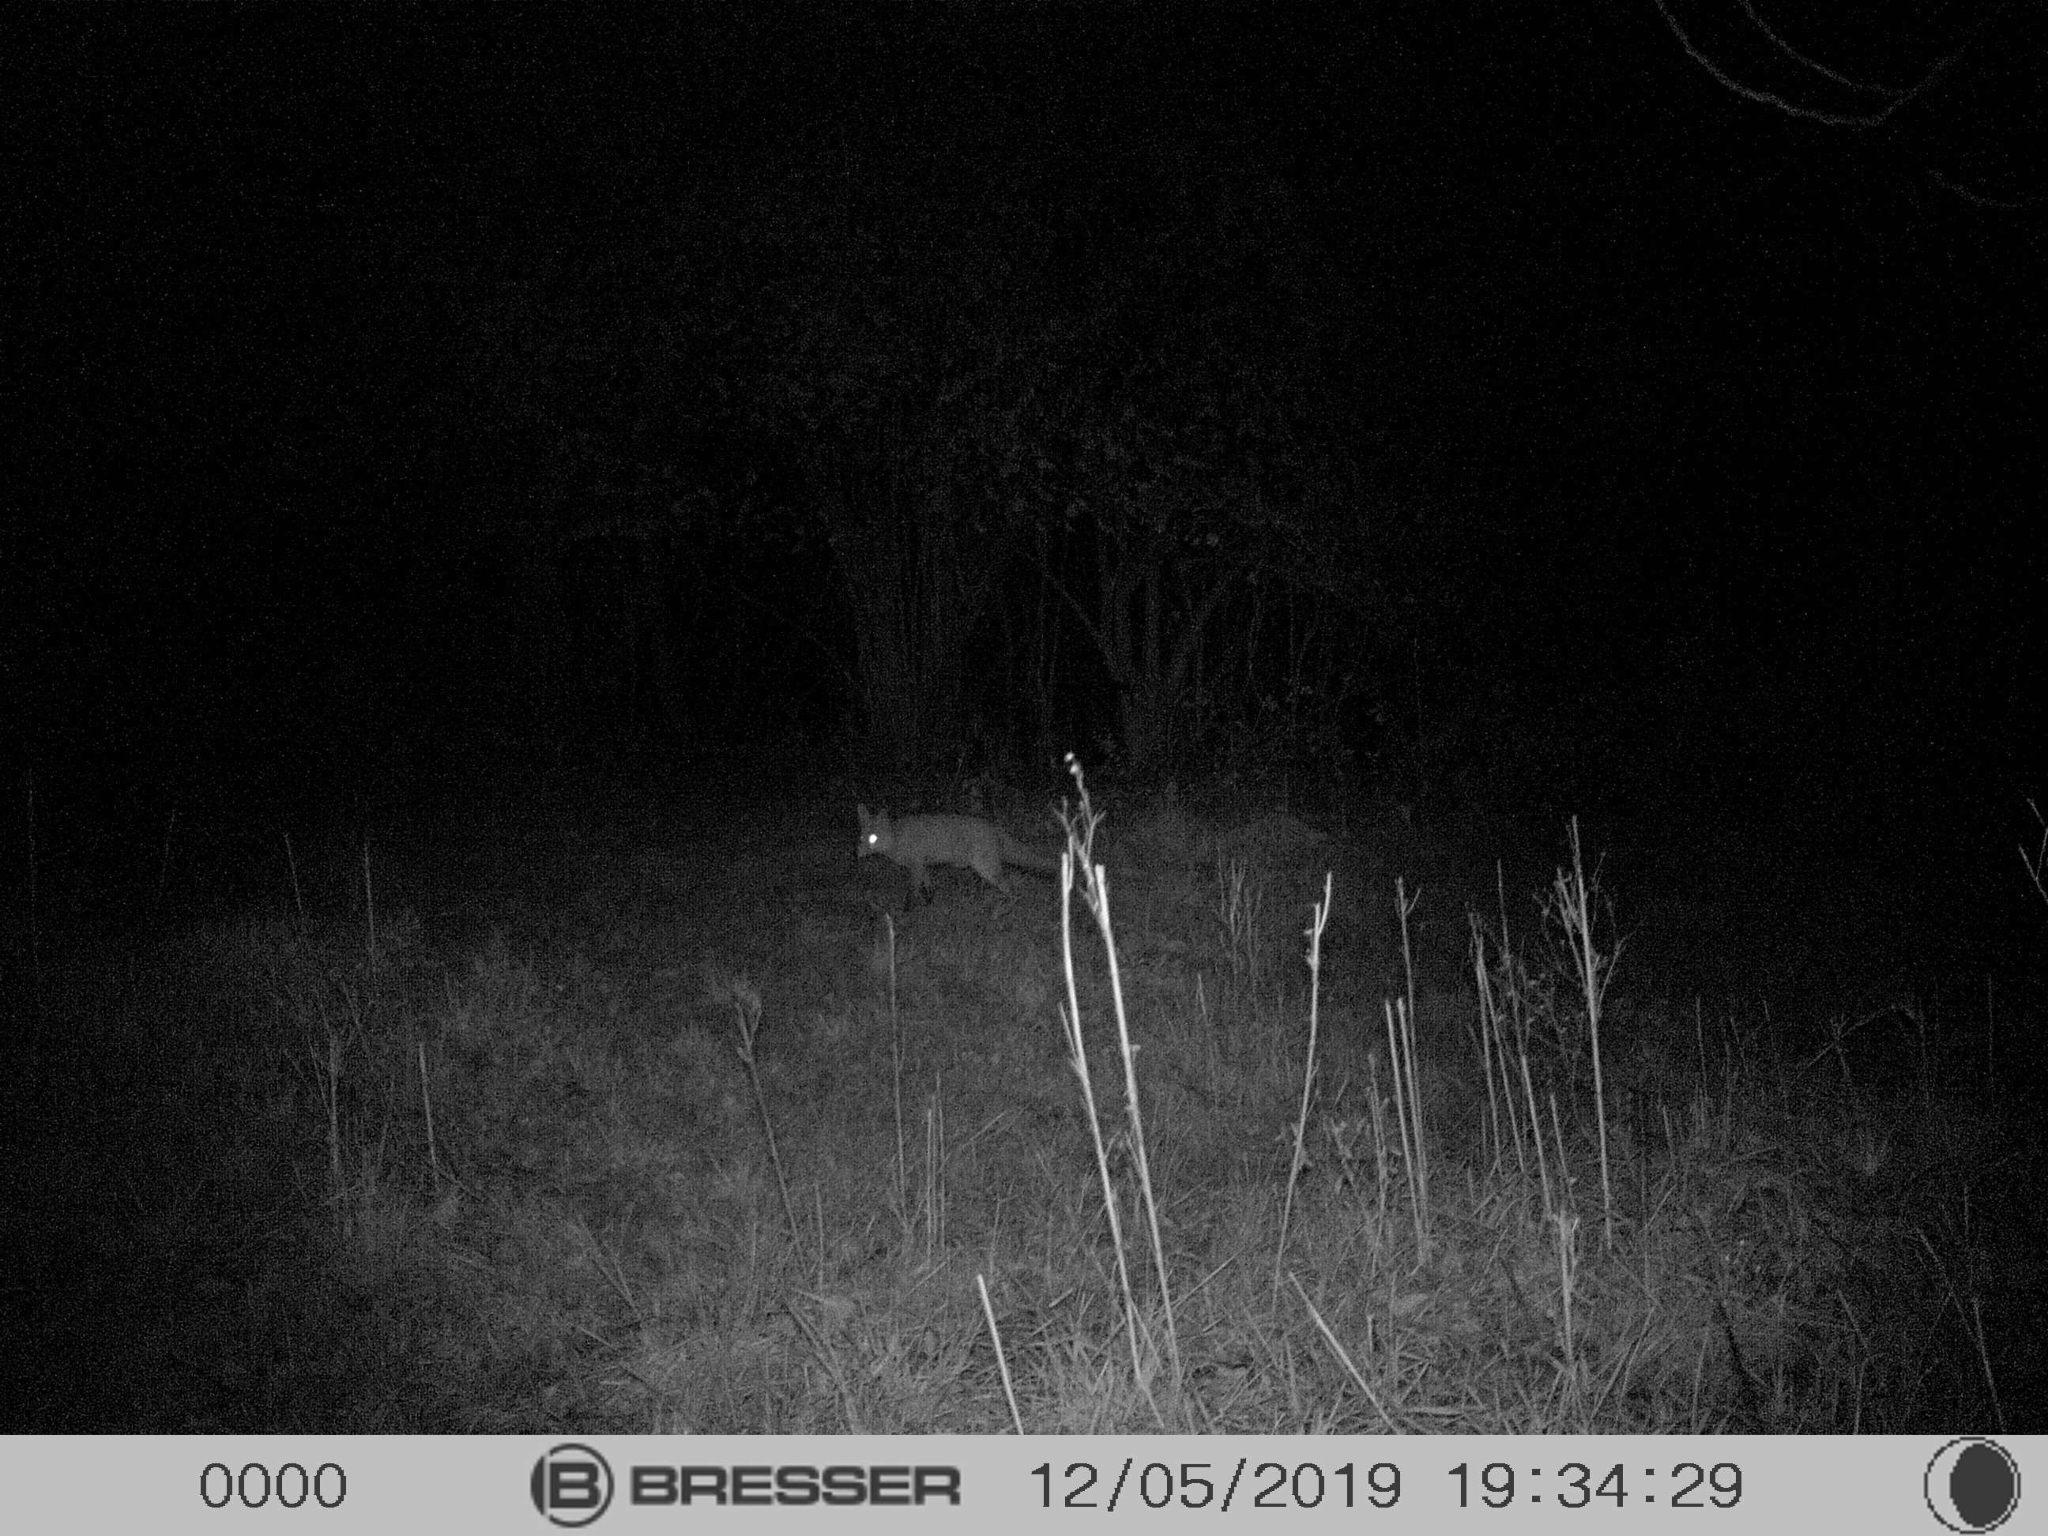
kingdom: Animalia
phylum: Chordata
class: Mammalia
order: Carnivora
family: Canidae
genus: Vulpes
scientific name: Vulpes vulpes
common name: Red fox
